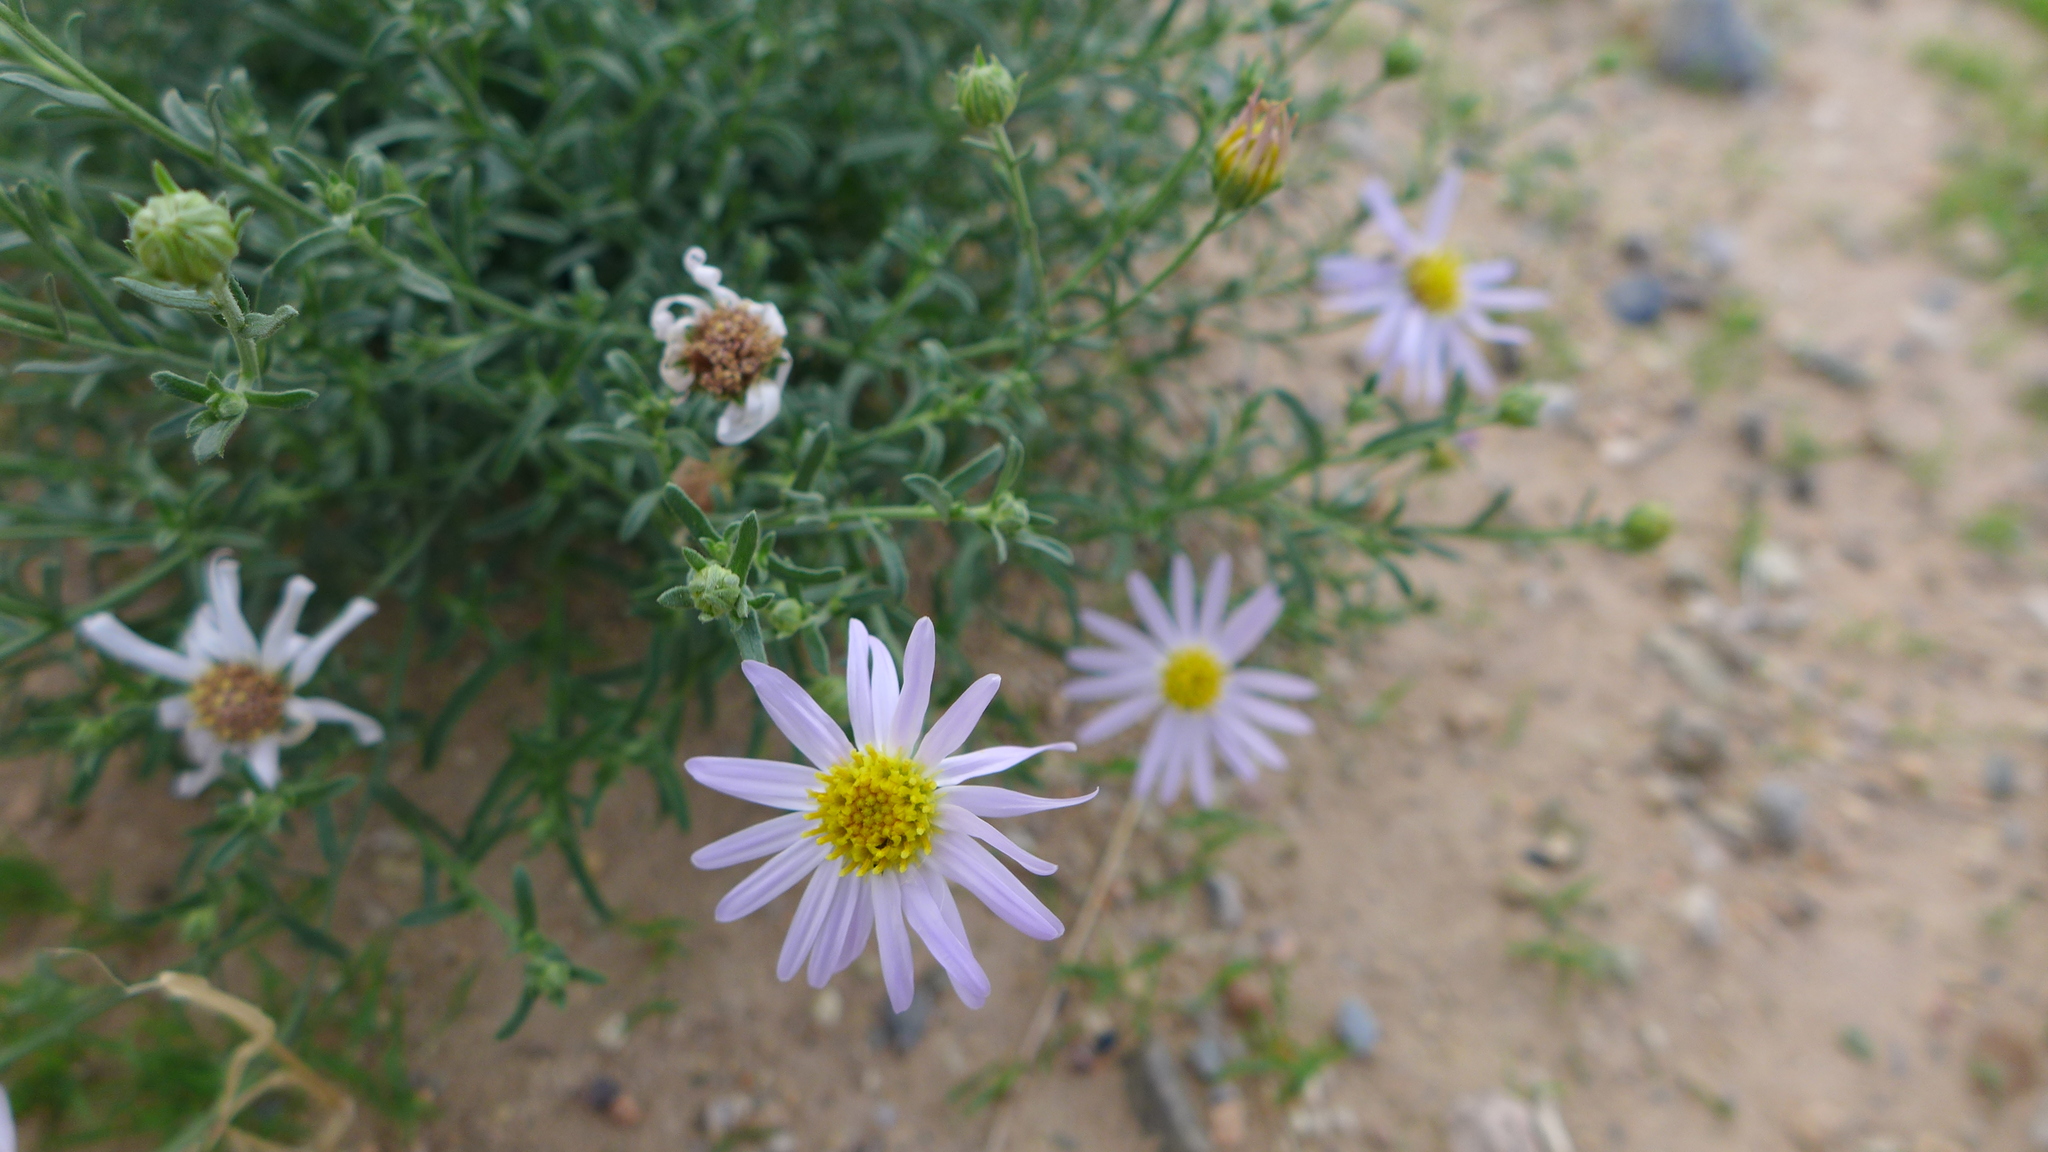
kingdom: Plantae
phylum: Tracheophyta
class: Magnoliopsida
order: Asterales
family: Asteraceae
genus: Asterothamnus
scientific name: Asterothamnus centraliasiaticus
